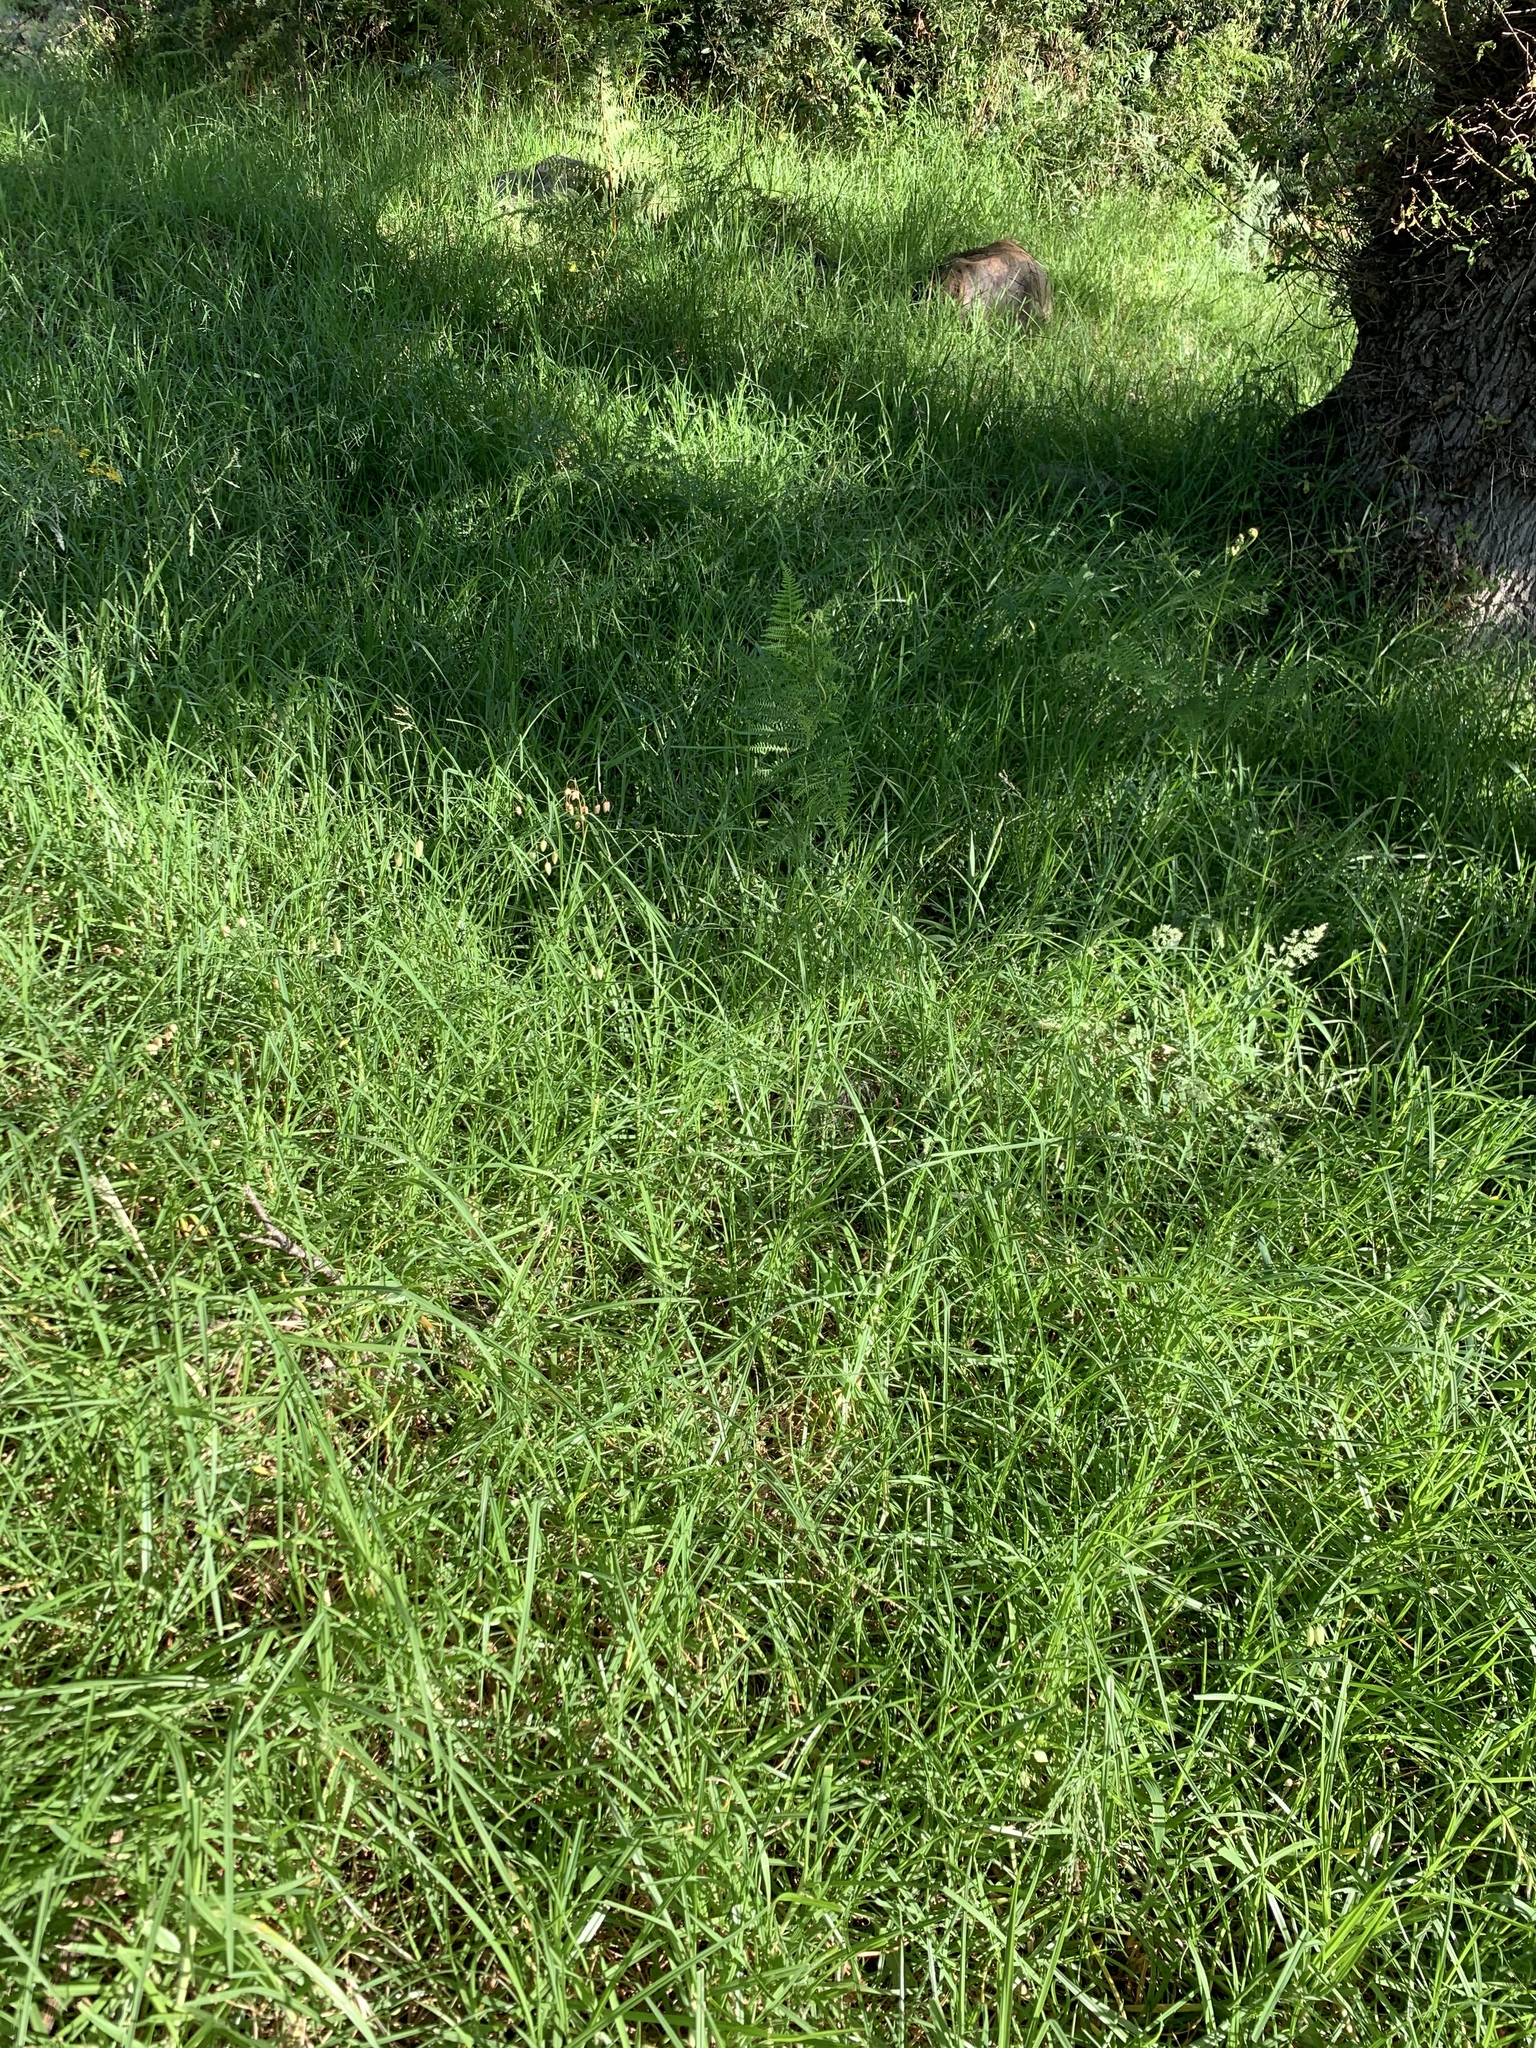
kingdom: Plantae
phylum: Tracheophyta
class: Liliopsida
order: Poales
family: Poaceae
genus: Cenchrus
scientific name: Cenchrus clandestinus
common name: Kikuyugrass
